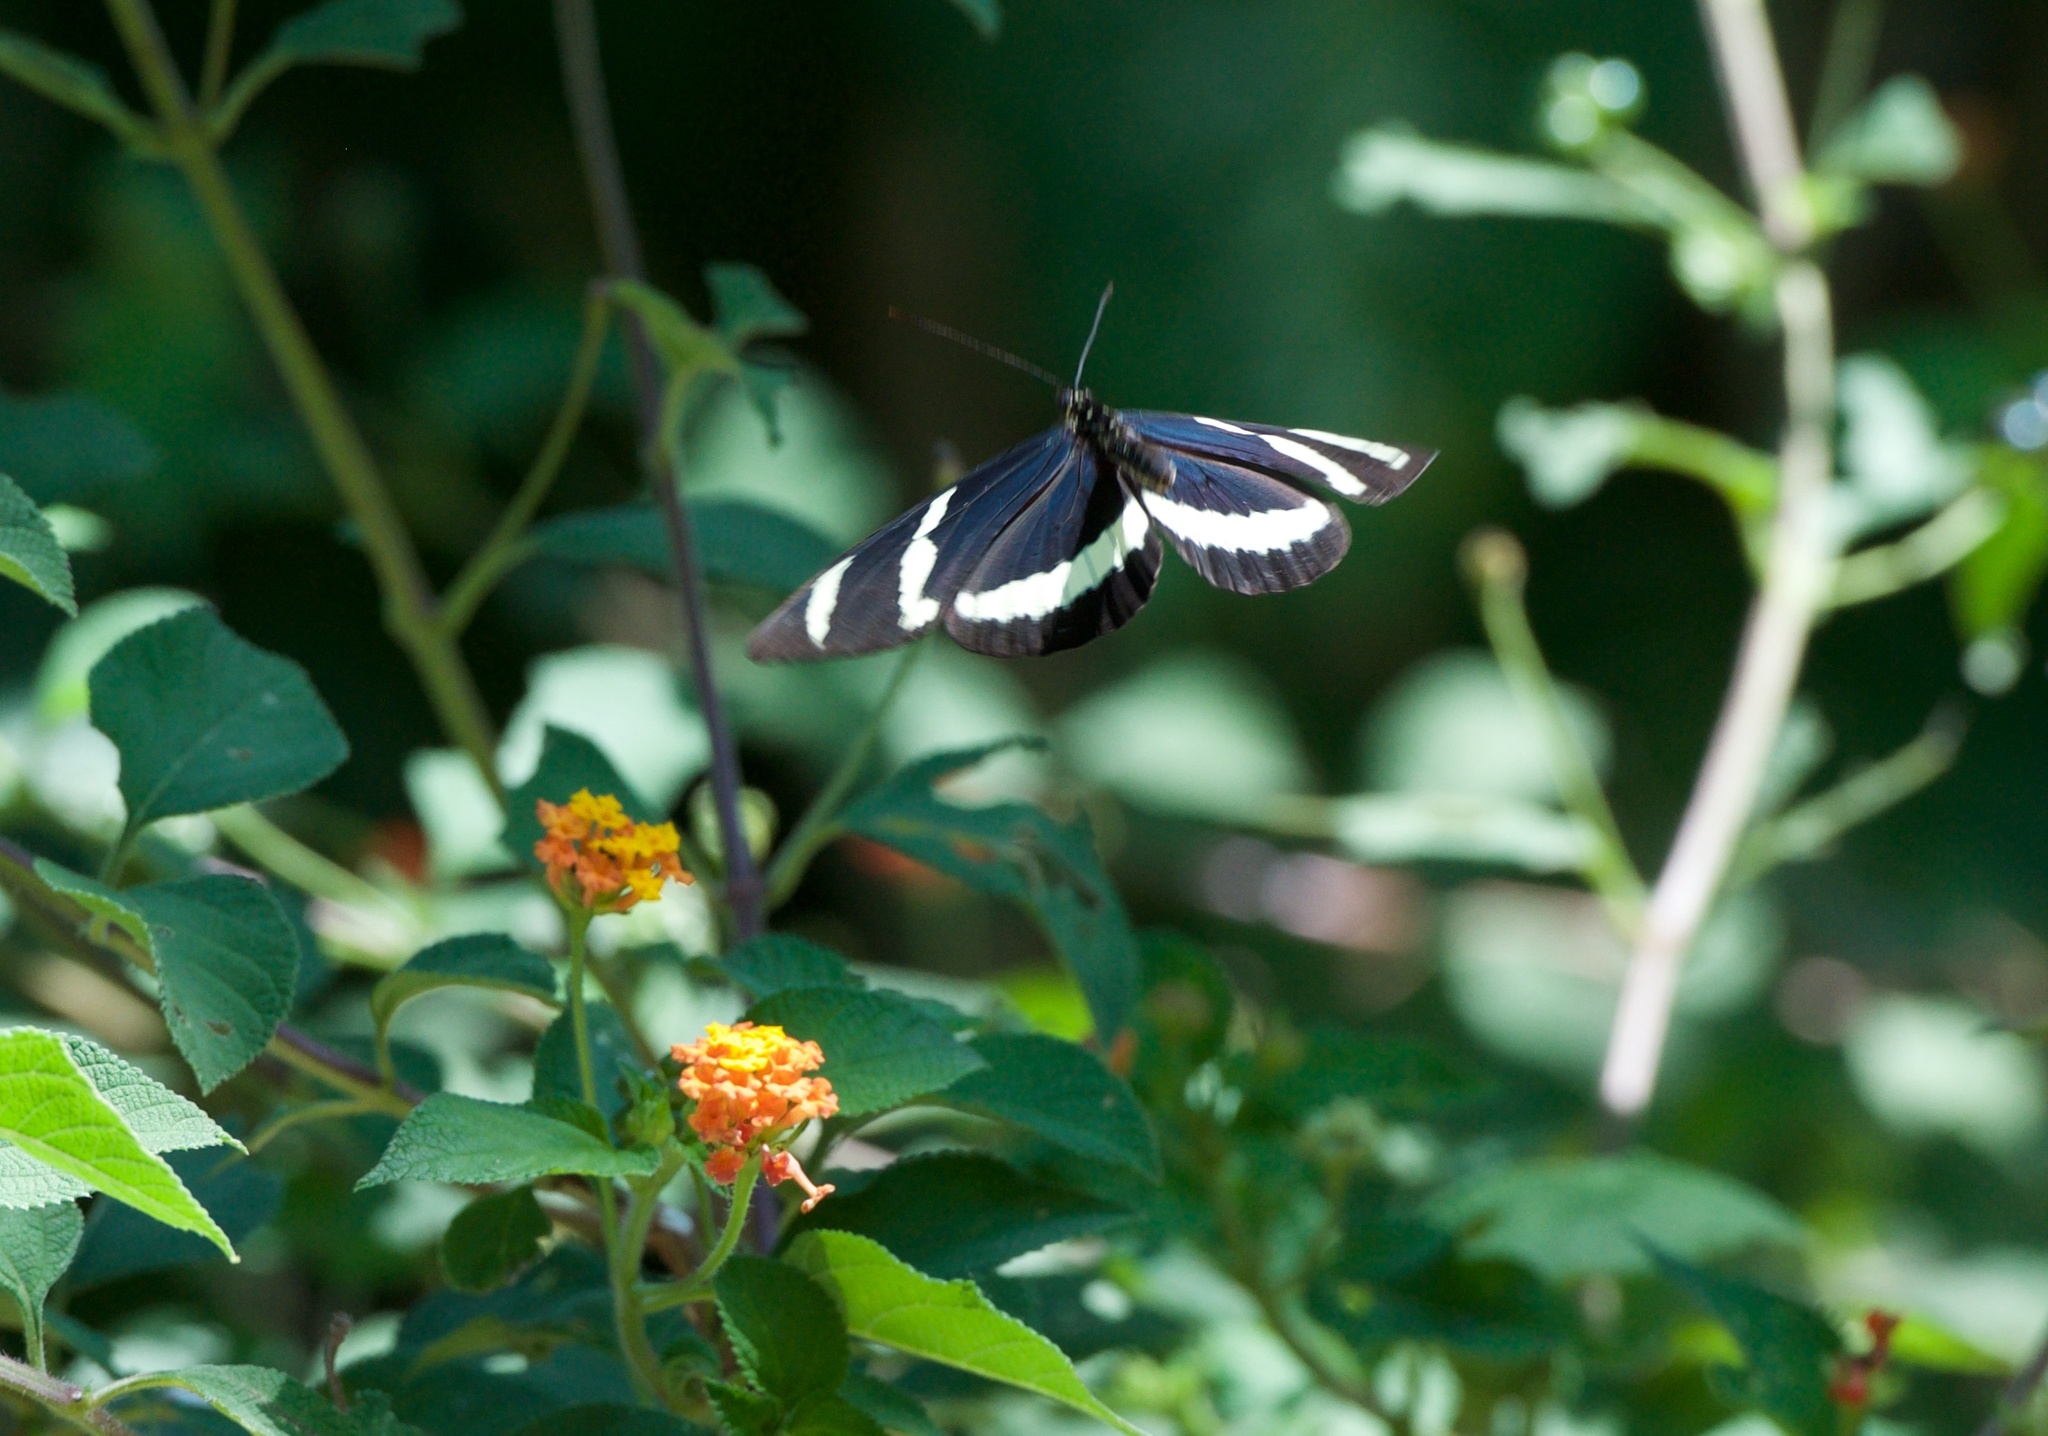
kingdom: Animalia
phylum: Arthropoda
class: Insecta
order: Lepidoptera
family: Nymphalidae
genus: Heliconius
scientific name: Heliconius hewitsoni
